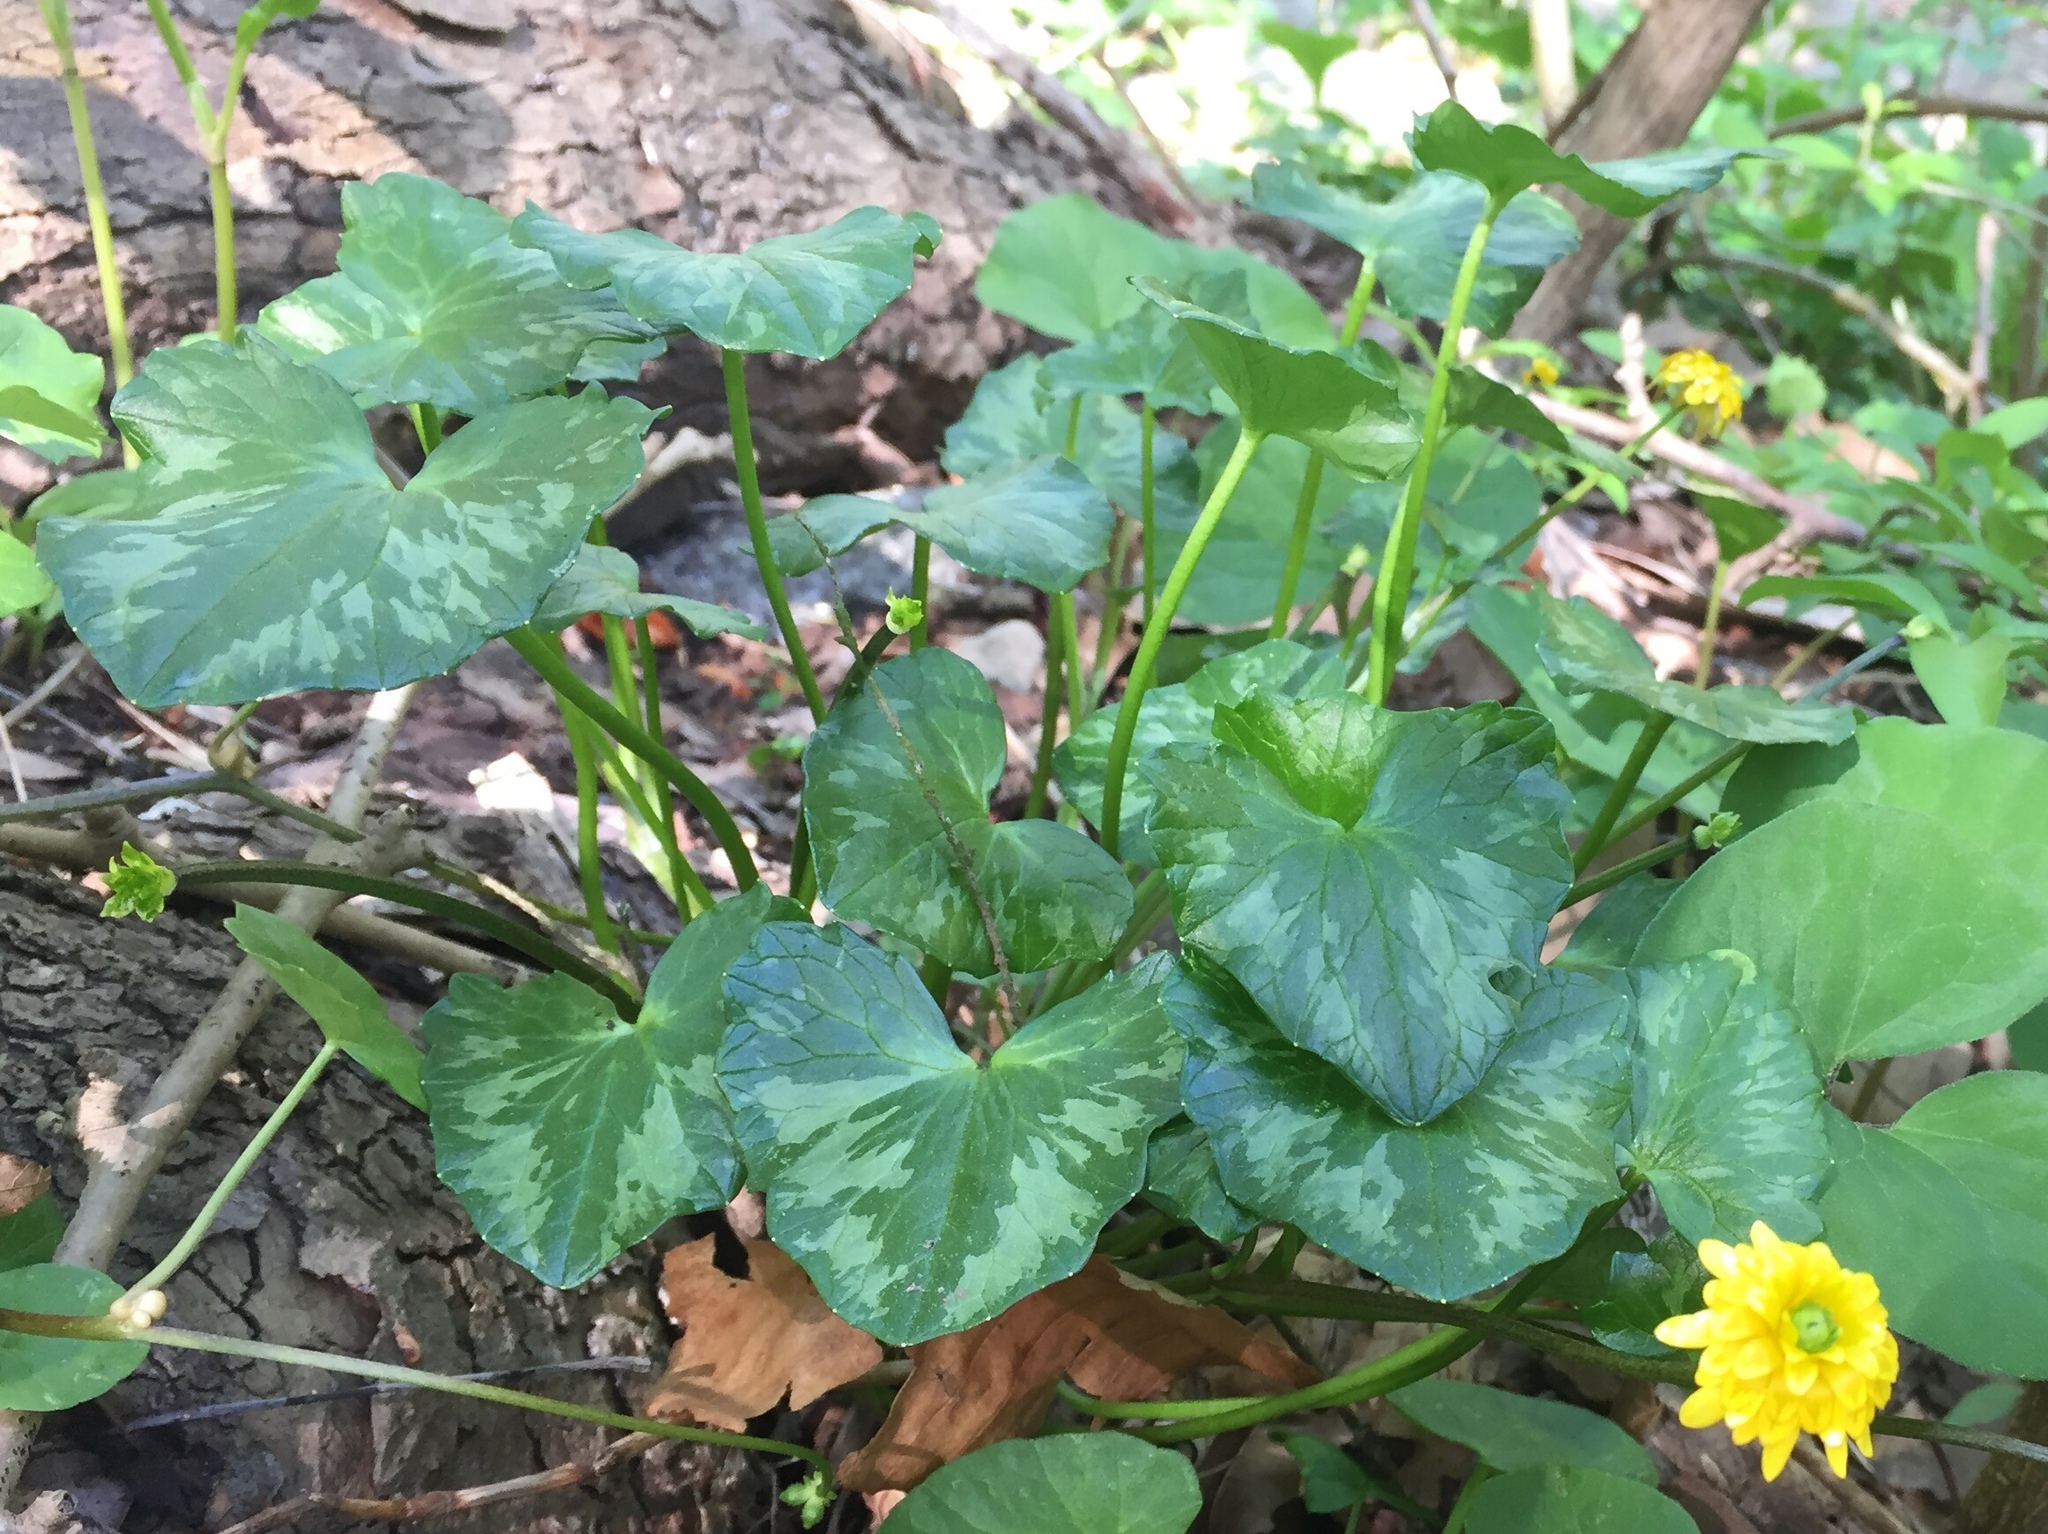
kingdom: Plantae
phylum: Tracheophyta
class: Magnoliopsida
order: Ranunculales
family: Ranunculaceae
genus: Ficaria
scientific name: Ficaria verna
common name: Lesser celandine
